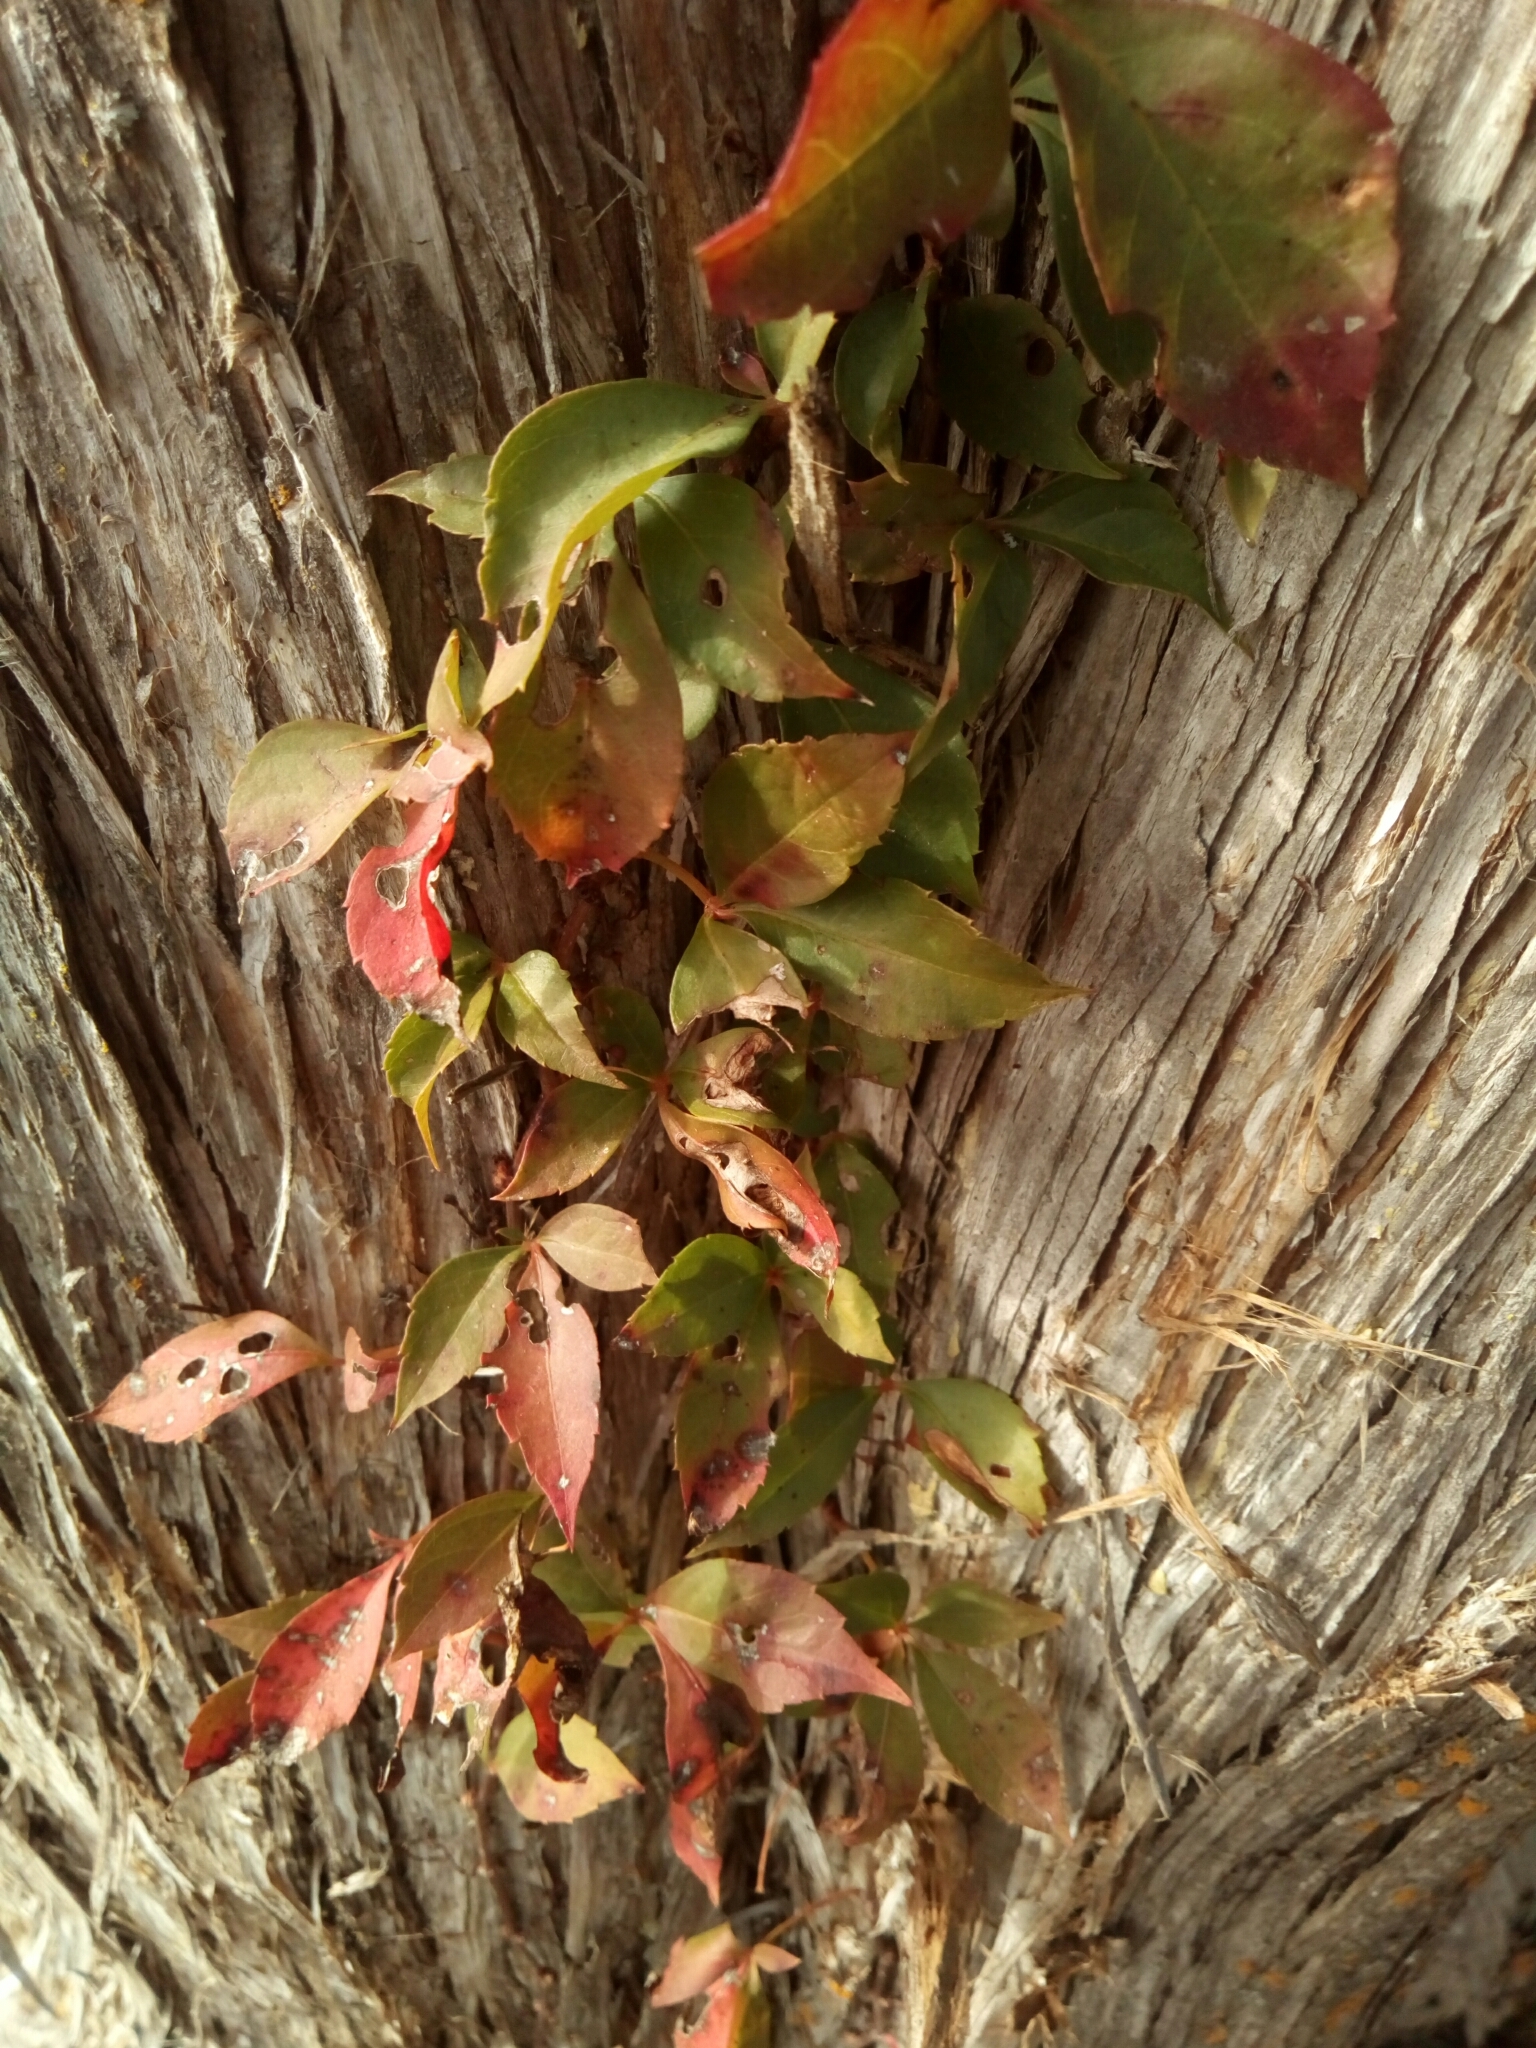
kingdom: Plantae
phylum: Tracheophyta
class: Magnoliopsida
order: Vitales
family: Vitaceae
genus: Parthenocissus
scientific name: Parthenocissus quinquefolia
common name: Virginia-creeper
